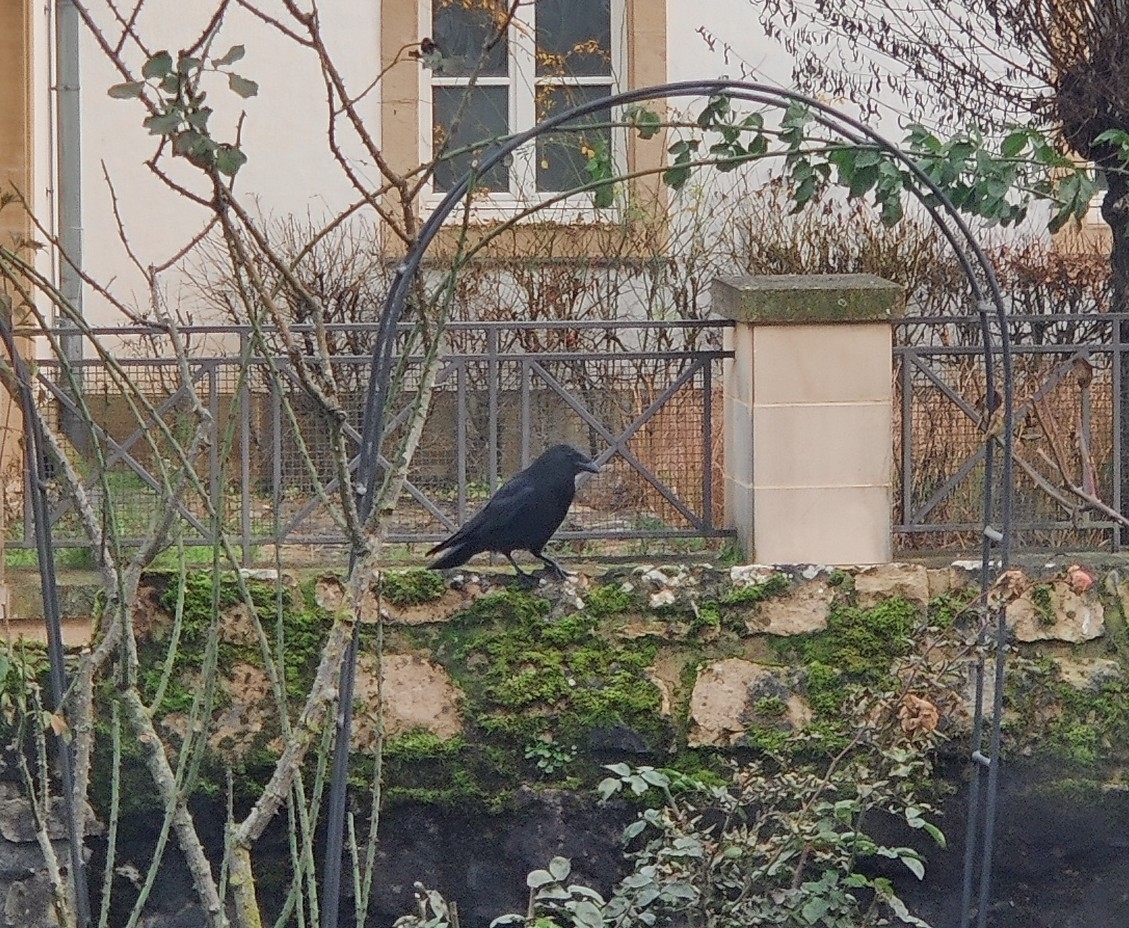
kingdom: Animalia
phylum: Chordata
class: Aves
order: Passeriformes
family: Corvidae
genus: Corvus
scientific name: Corvus corone
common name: Carrion crow
